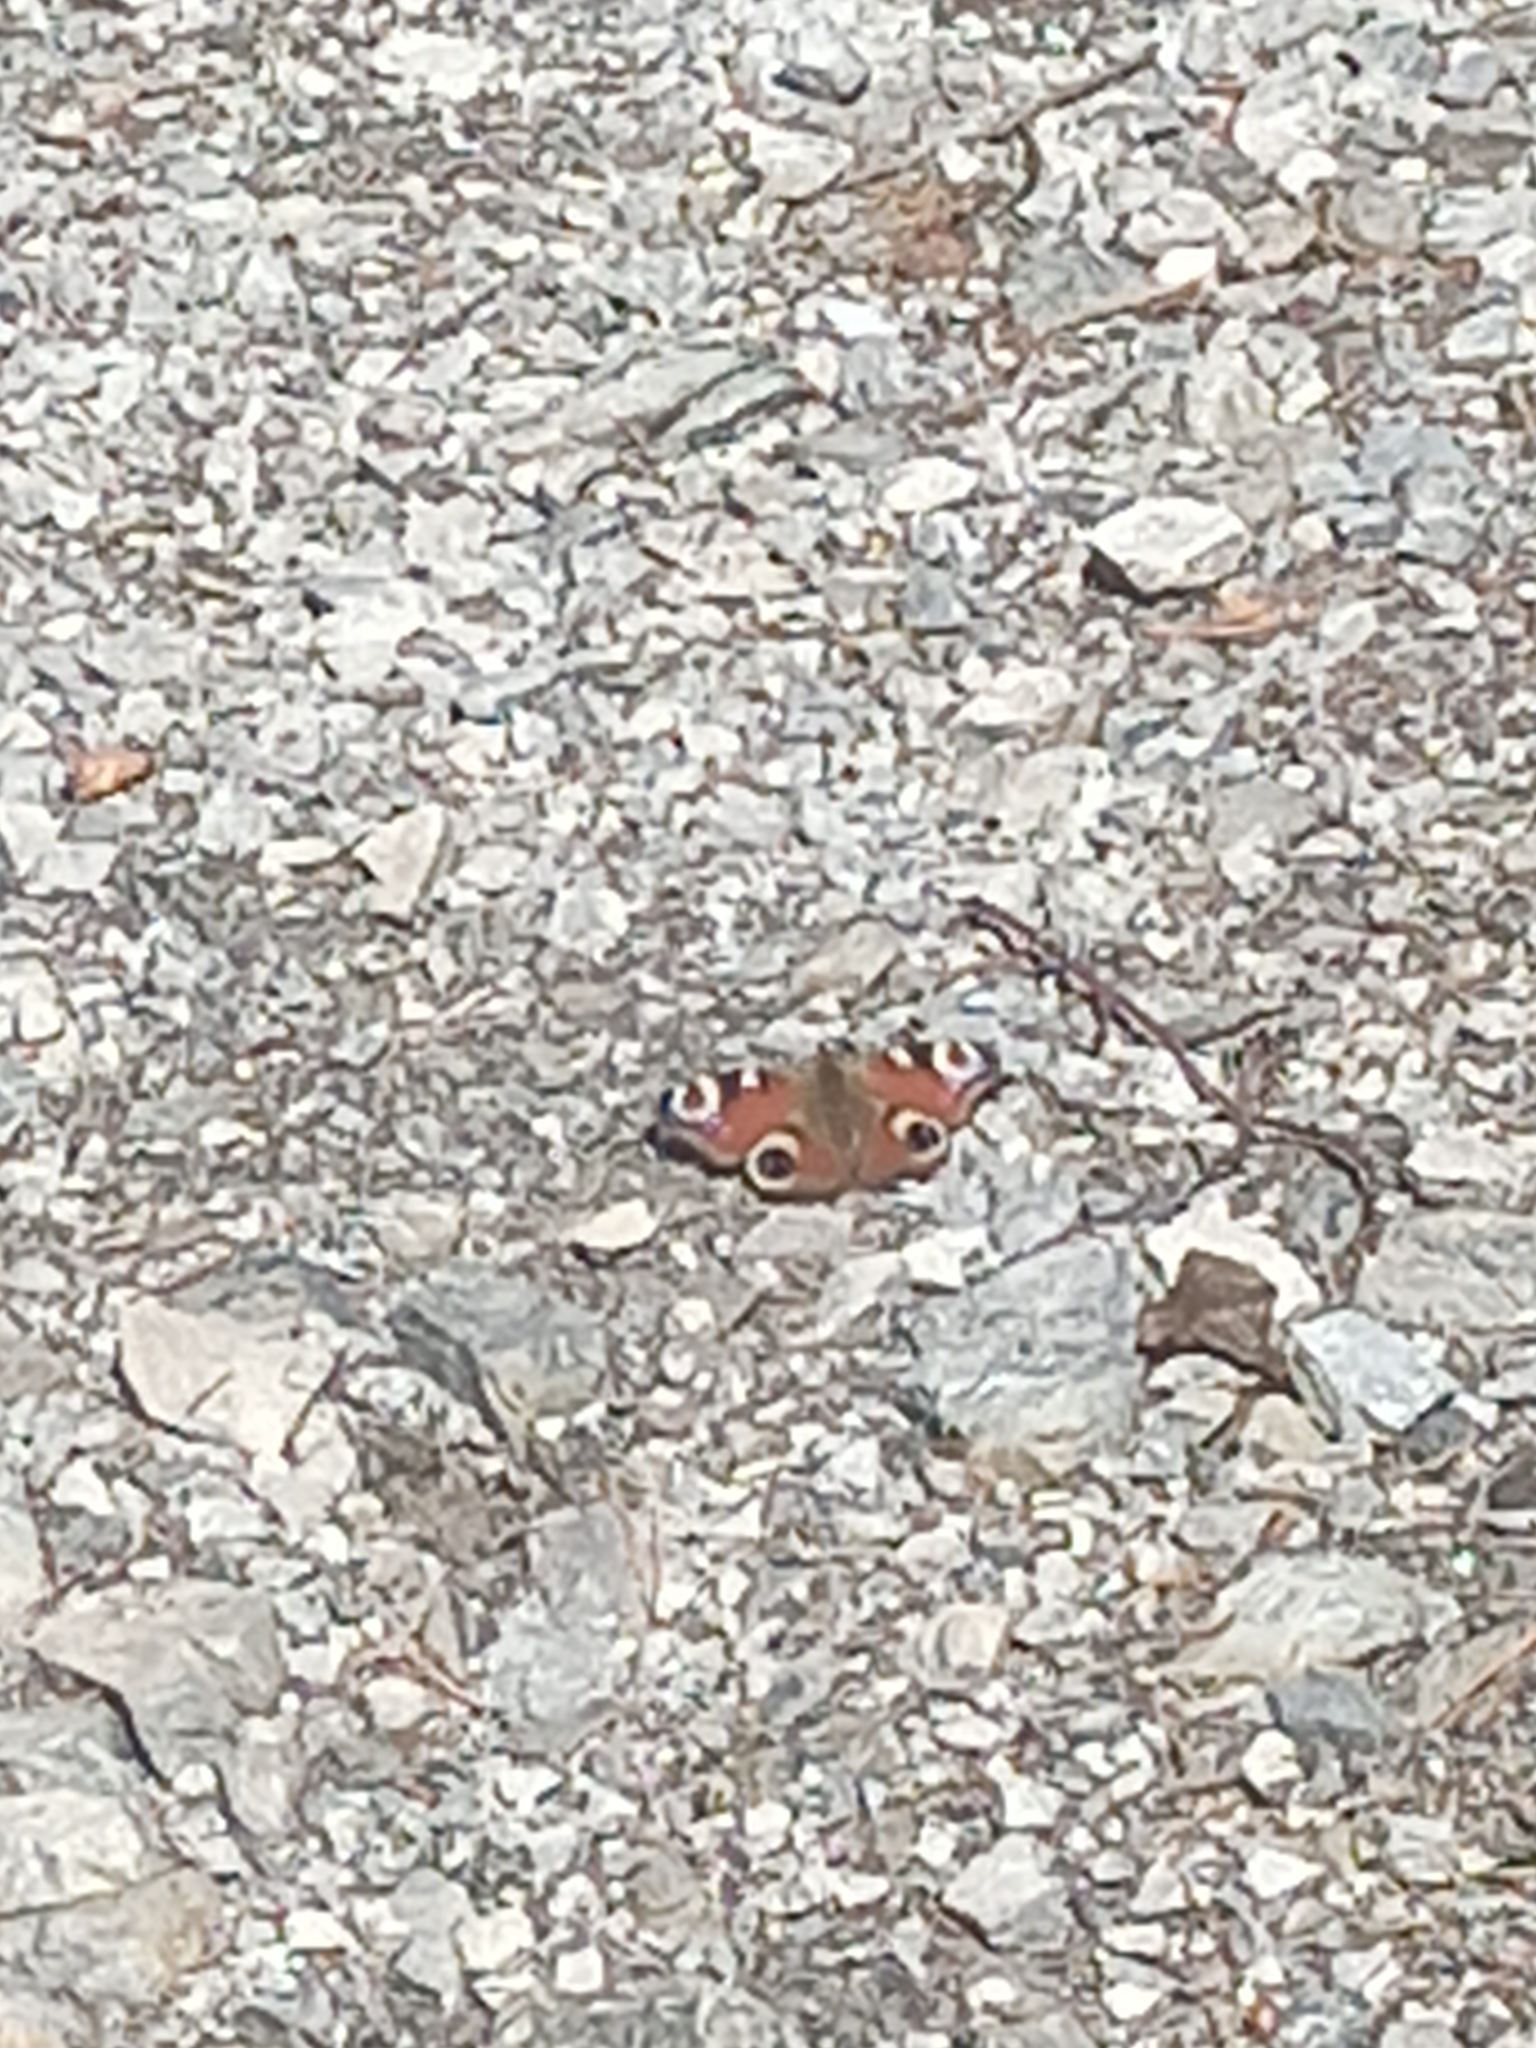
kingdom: Animalia
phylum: Arthropoda
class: Insecta
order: Lepidoptera
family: Nymphalidae
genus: Aglais
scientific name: Aglais io
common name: Peacock
